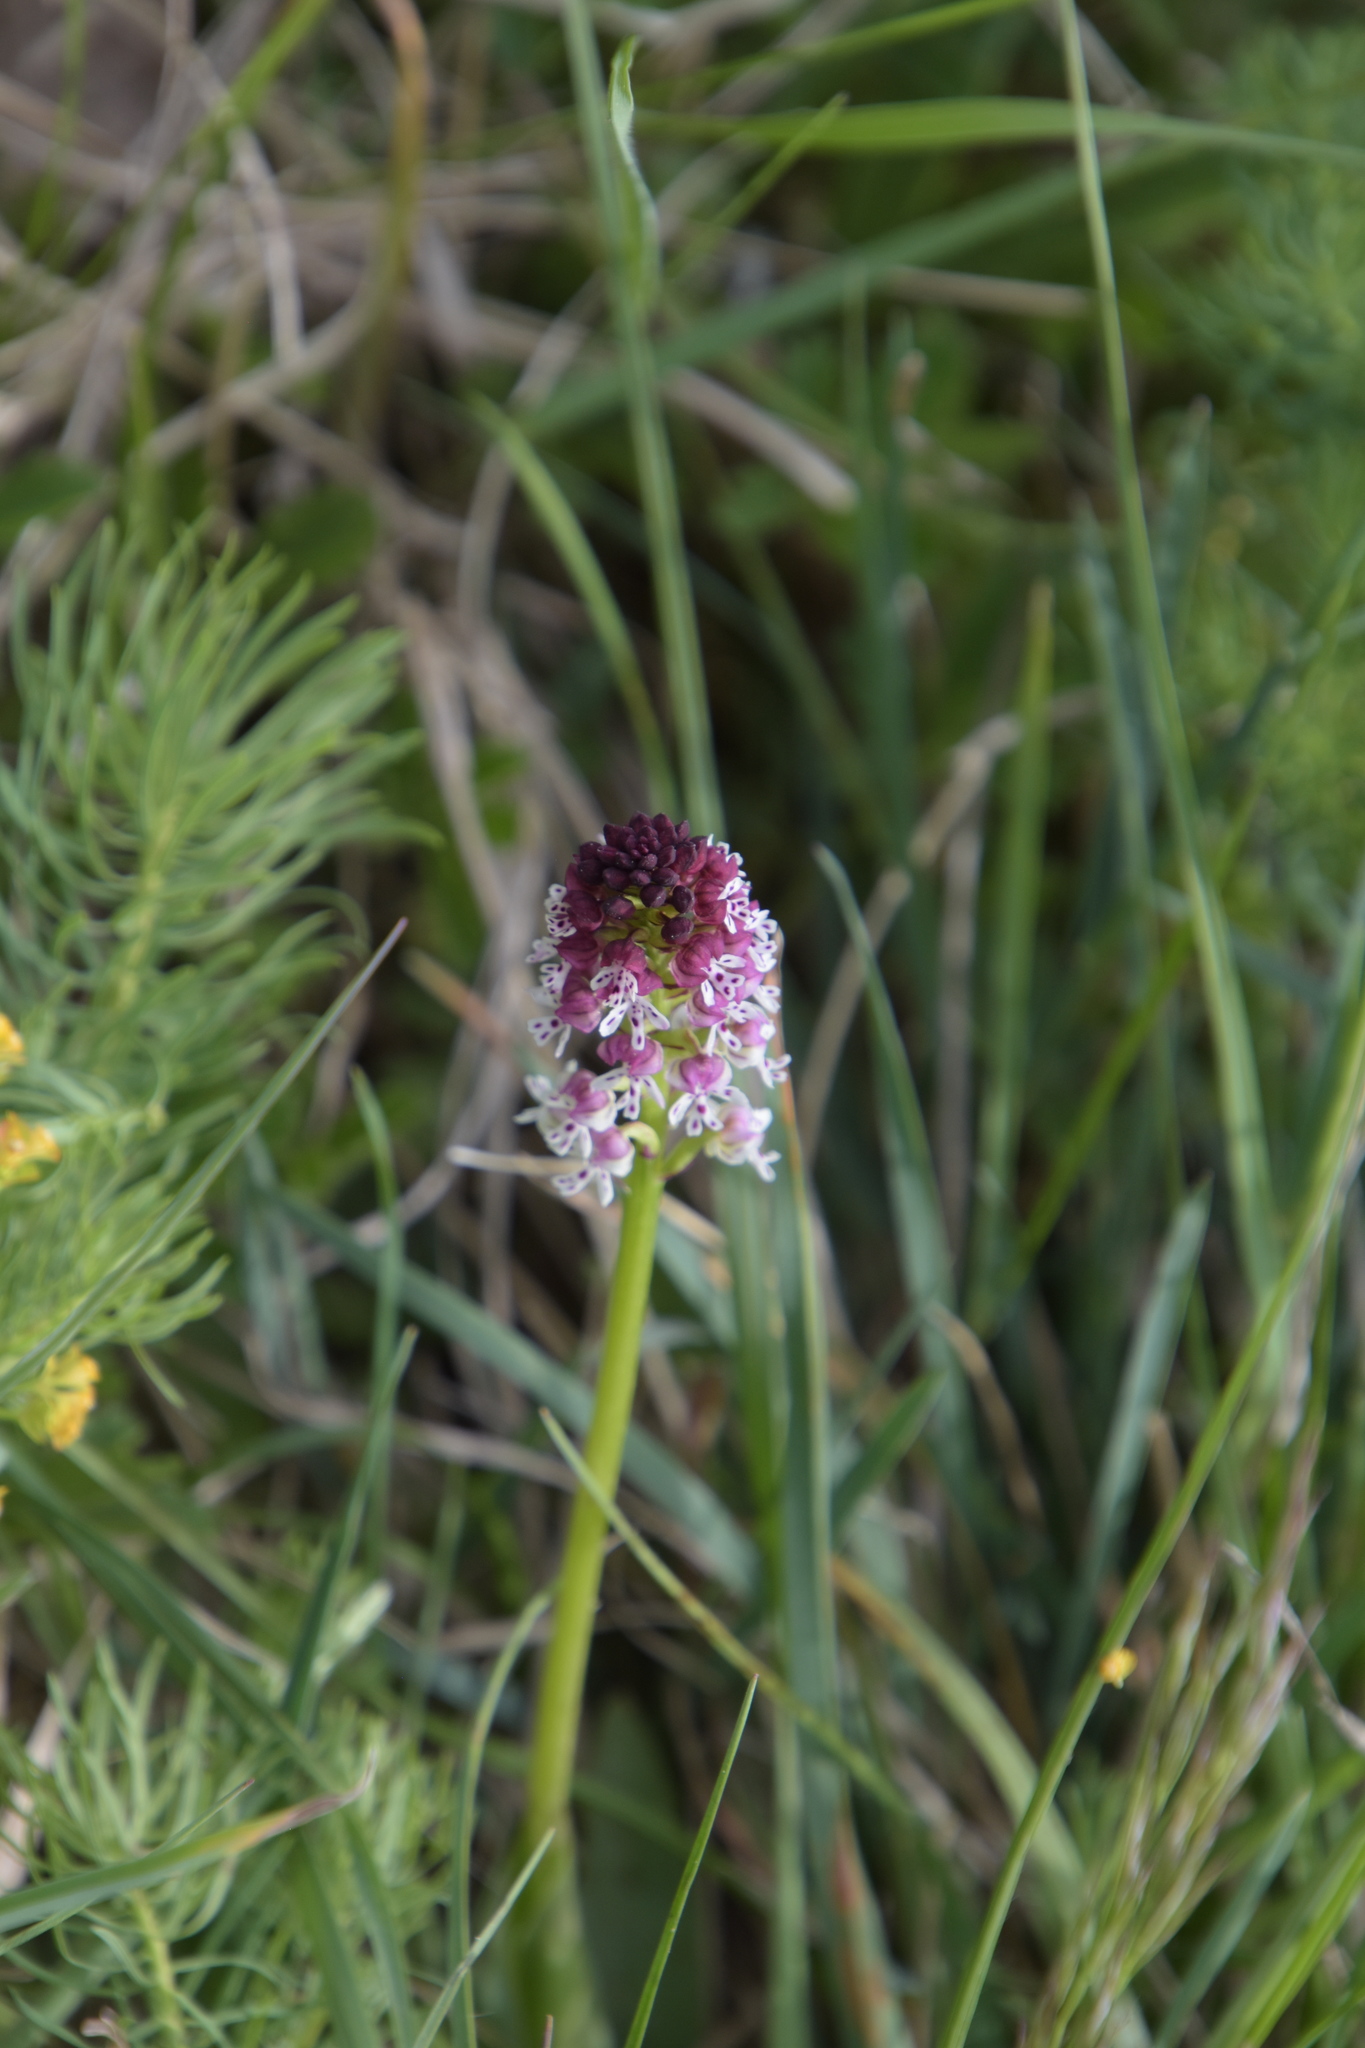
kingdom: Plantae
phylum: Tracheophyta
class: Liliopsida
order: Asparagales
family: Orchidaceae
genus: Neotinea
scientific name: Neotinea ustulata
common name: Burnt orchid
